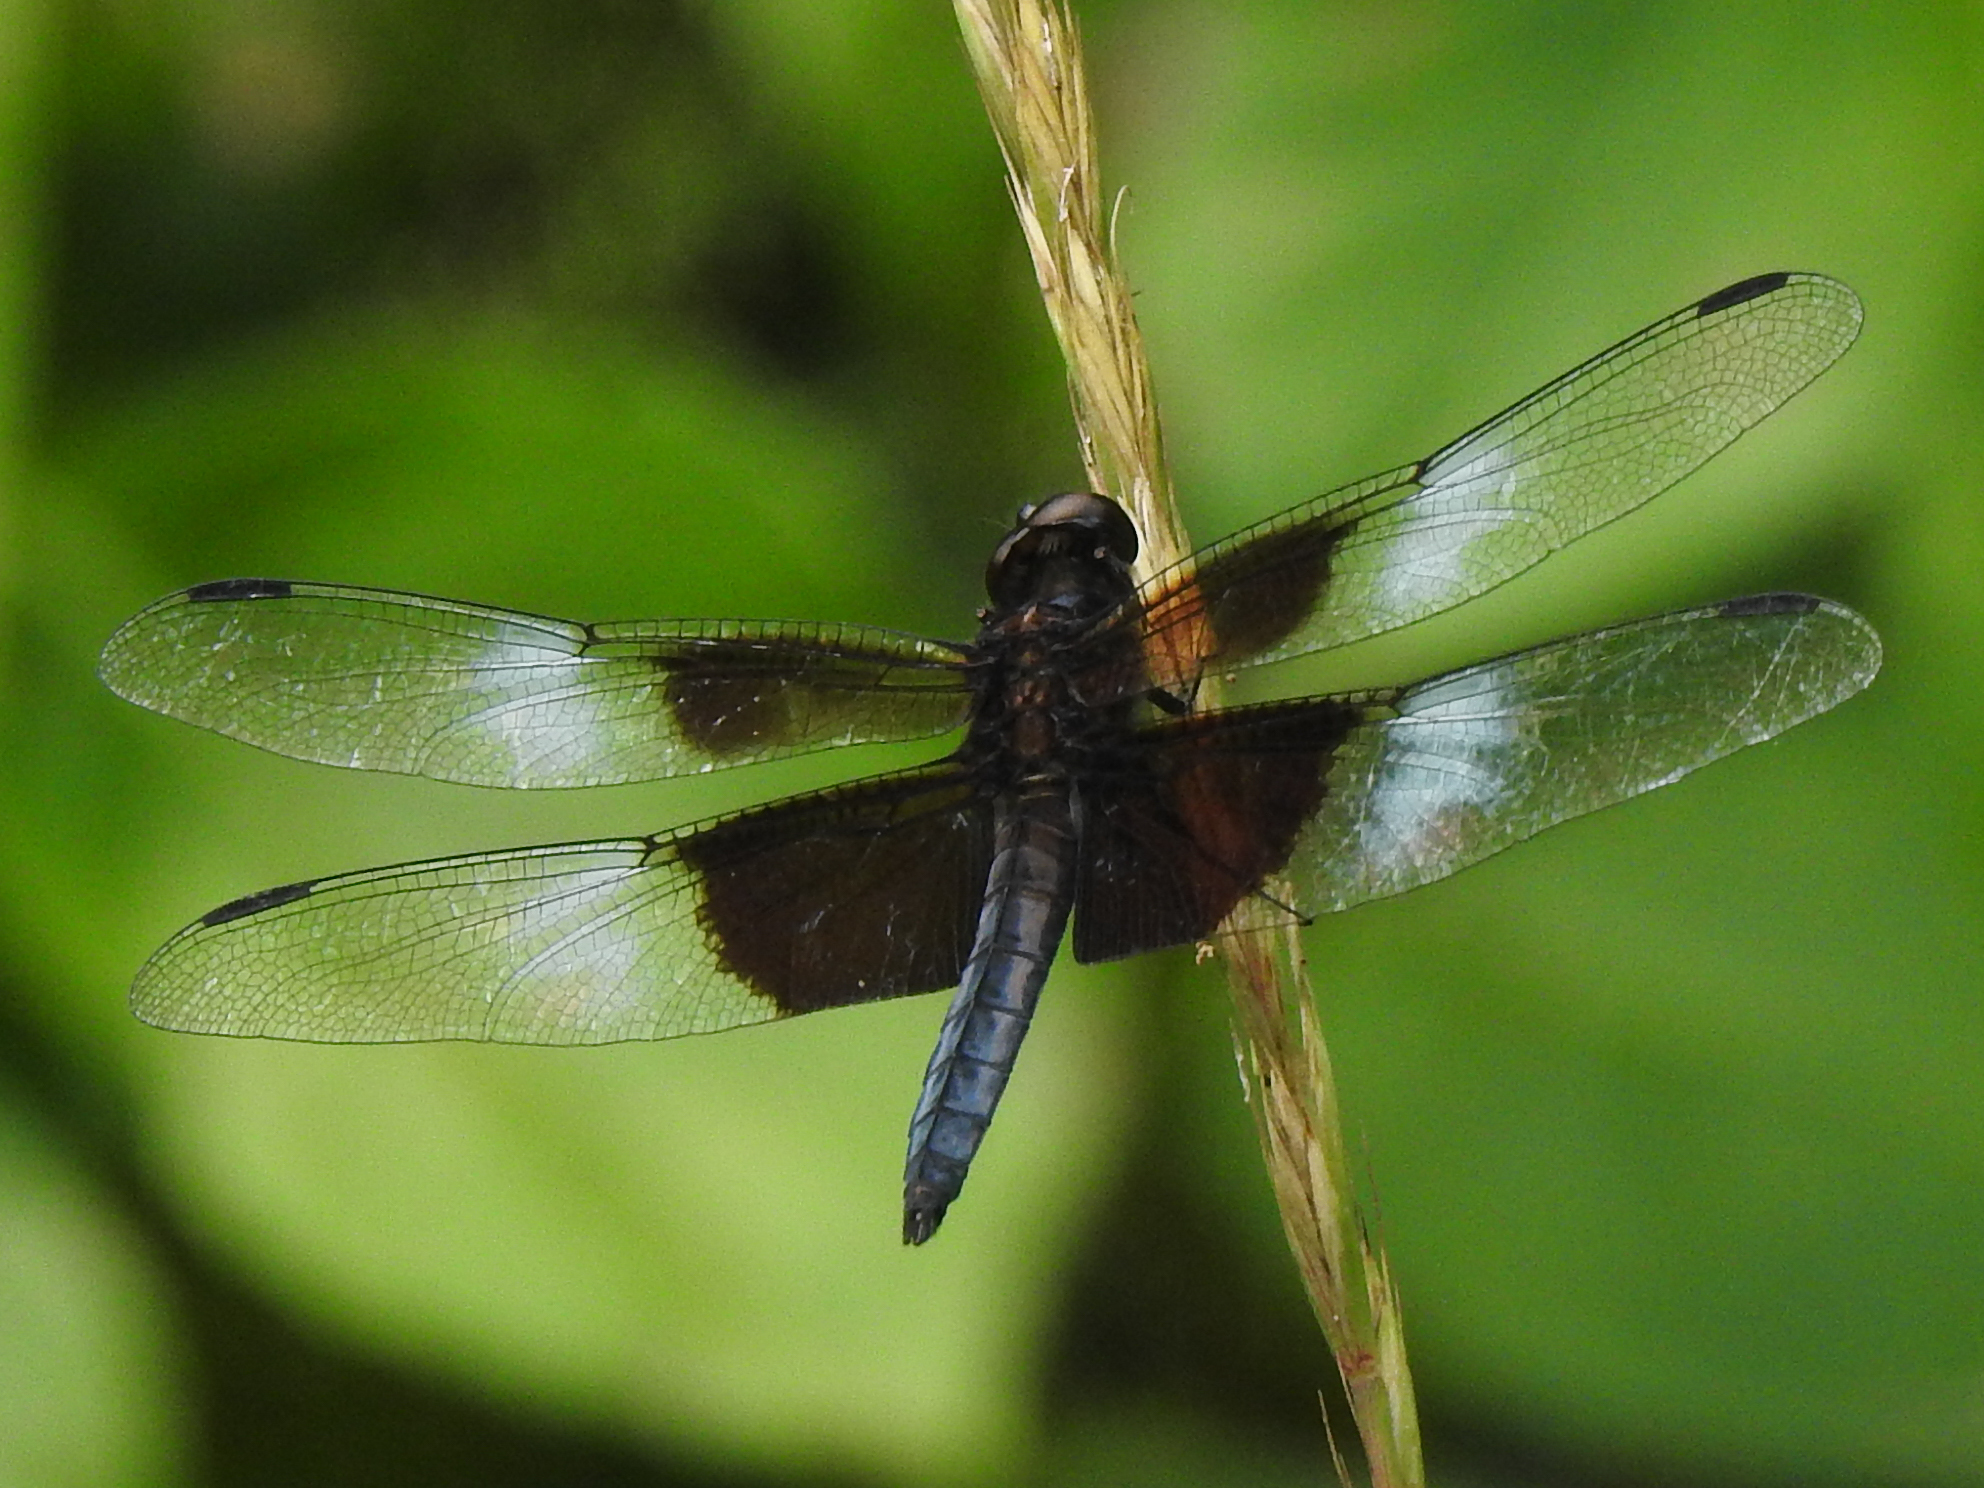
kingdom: Animalia
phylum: Arthropoda
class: Insecta
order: Odonata
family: Libellulidae
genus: Libellula
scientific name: Libellula luctuosa
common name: Widow skimmer
